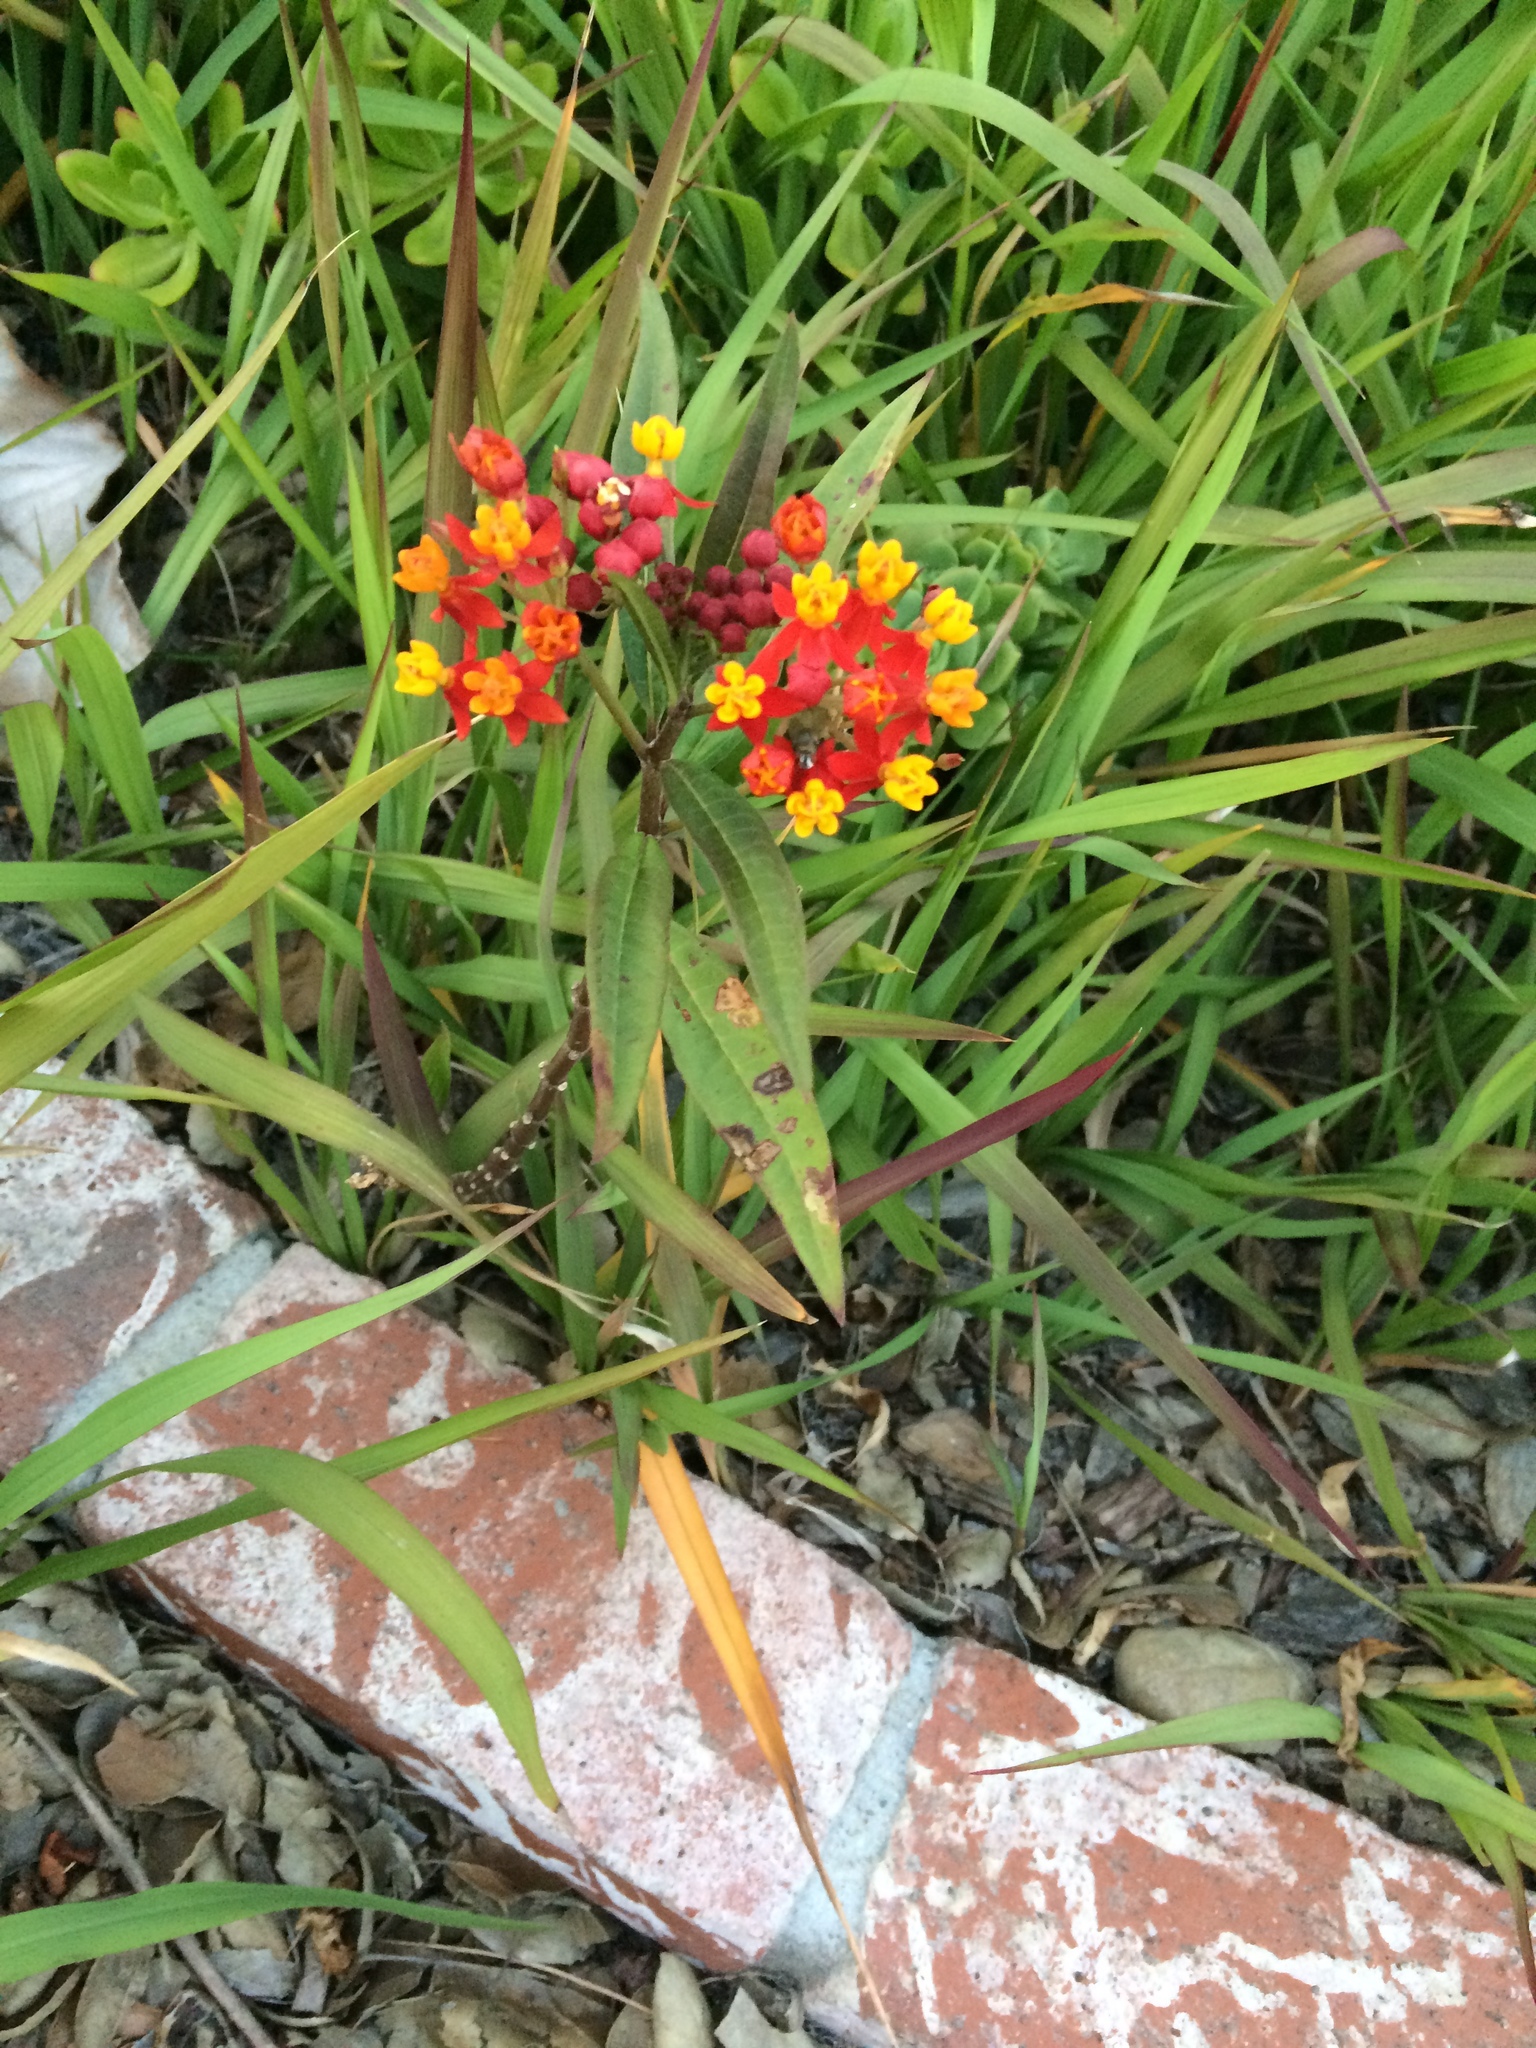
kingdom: Plantae
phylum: Tracheophyta
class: Magnoliopsida
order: Gentianales
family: Apocynaceae
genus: Asclepias
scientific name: Asclepias curassavica
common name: Bloodflower
